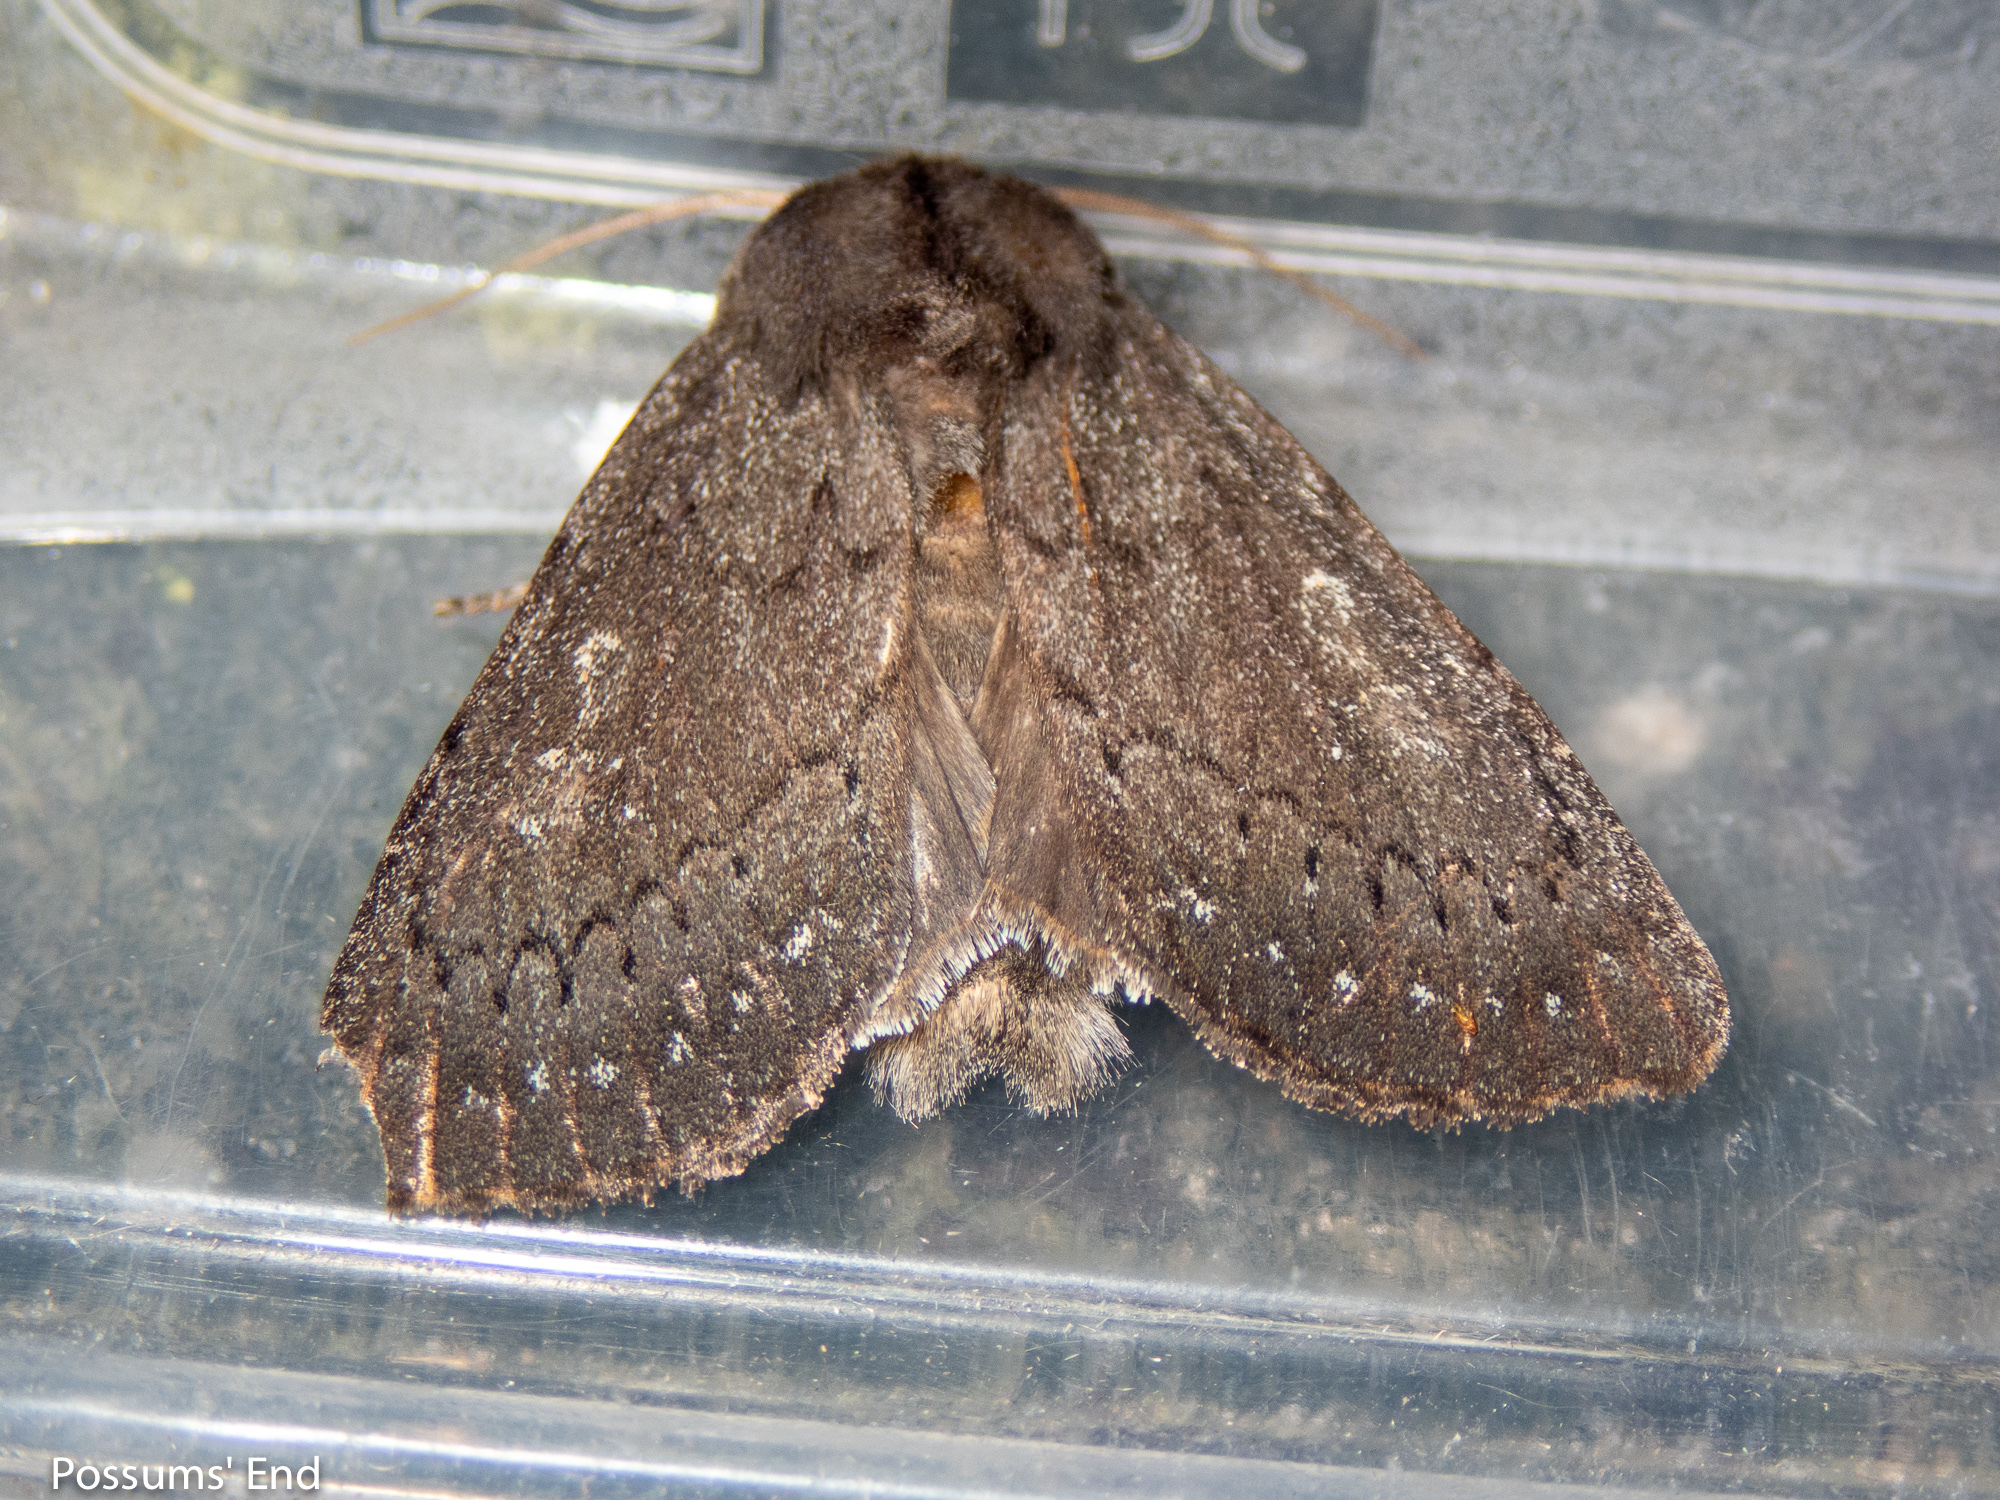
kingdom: Animalia
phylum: Arthropoda
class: Insecta
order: Lepidoptera
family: Noctuidae
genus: Ichneutica
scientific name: Ichneutica nullifera
